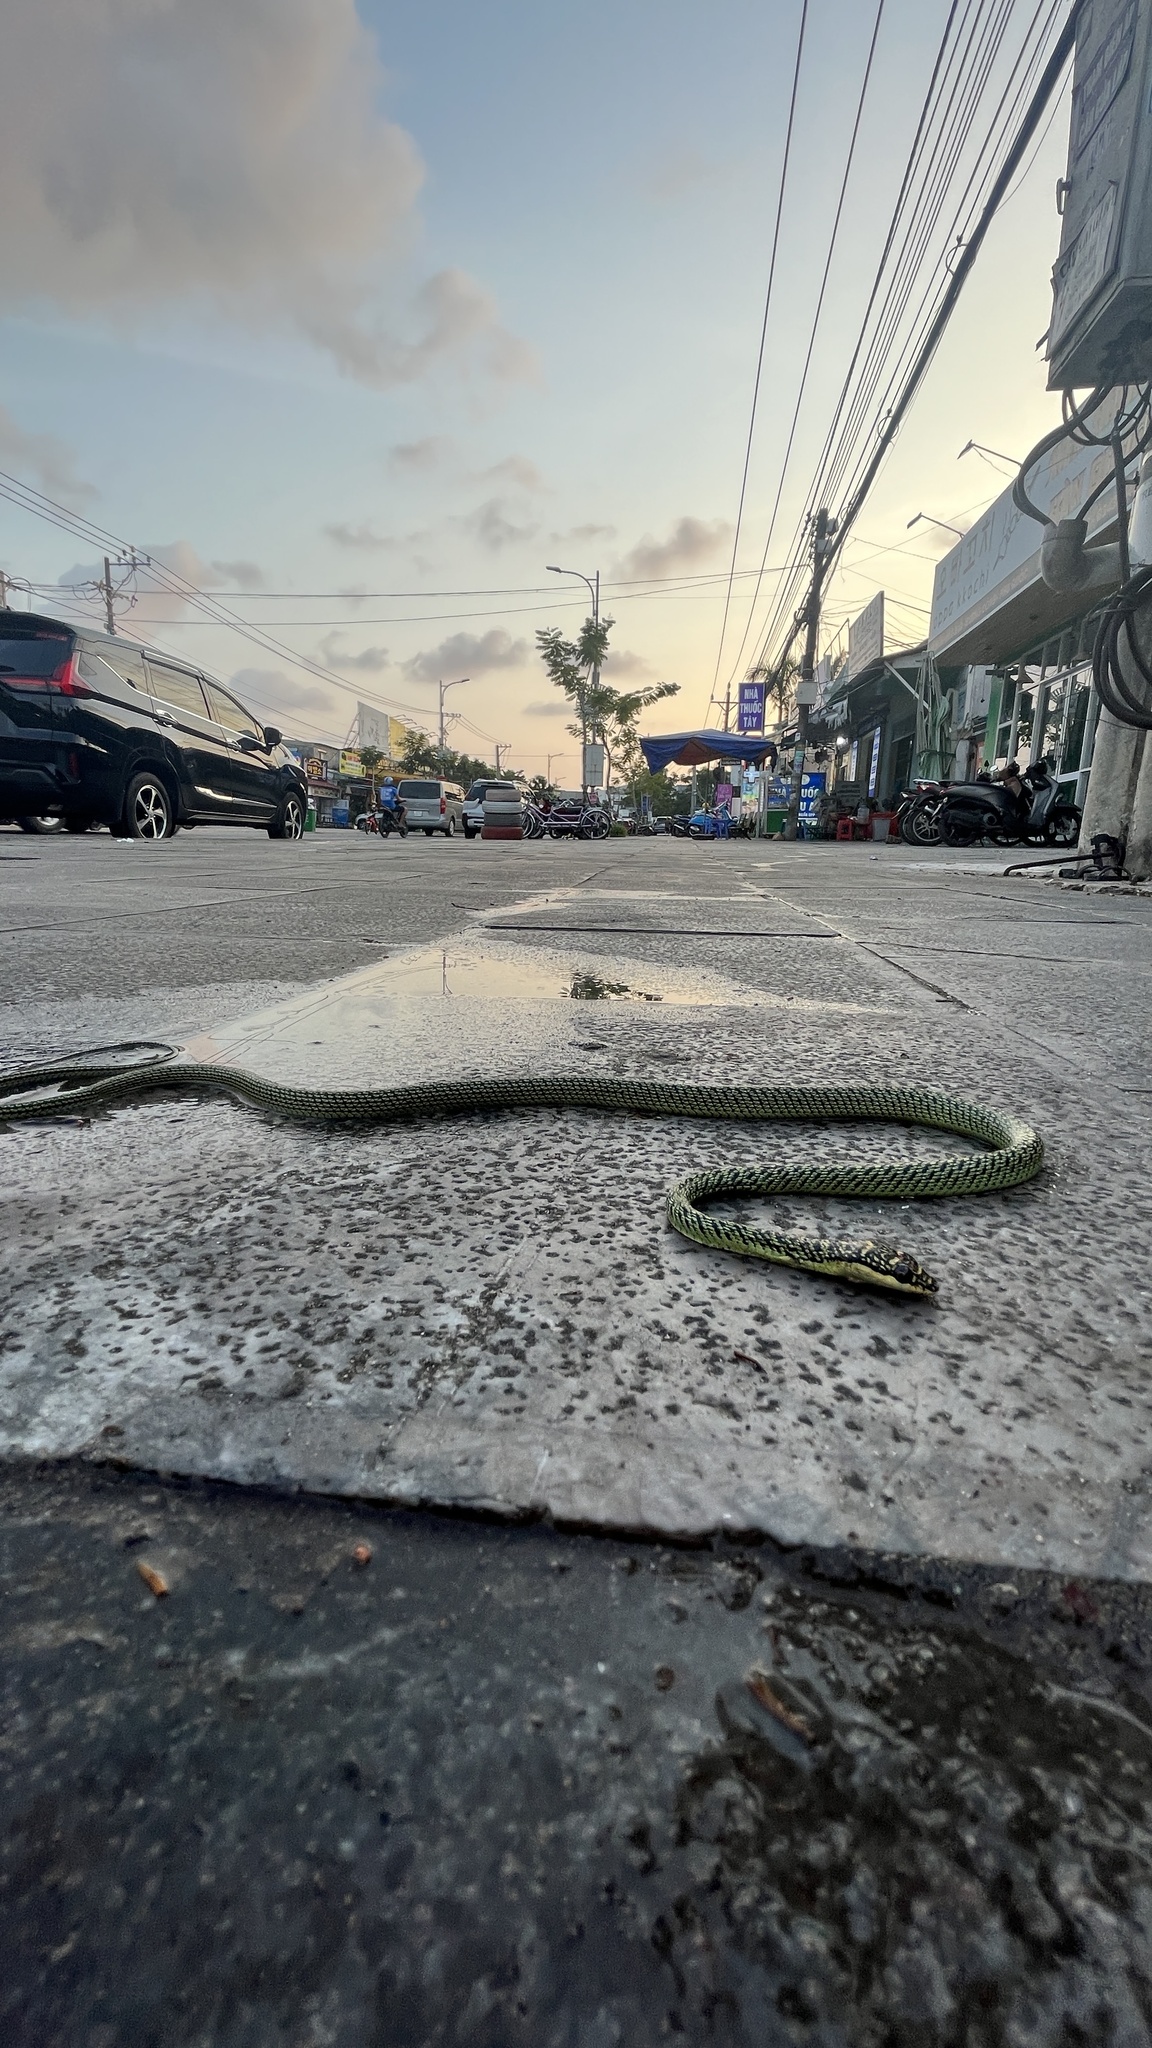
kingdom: Animalia
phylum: Chordata
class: Squamata
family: Colubridae
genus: Chrysopelea
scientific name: Chrysopelea ornata
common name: Golden flying snake
